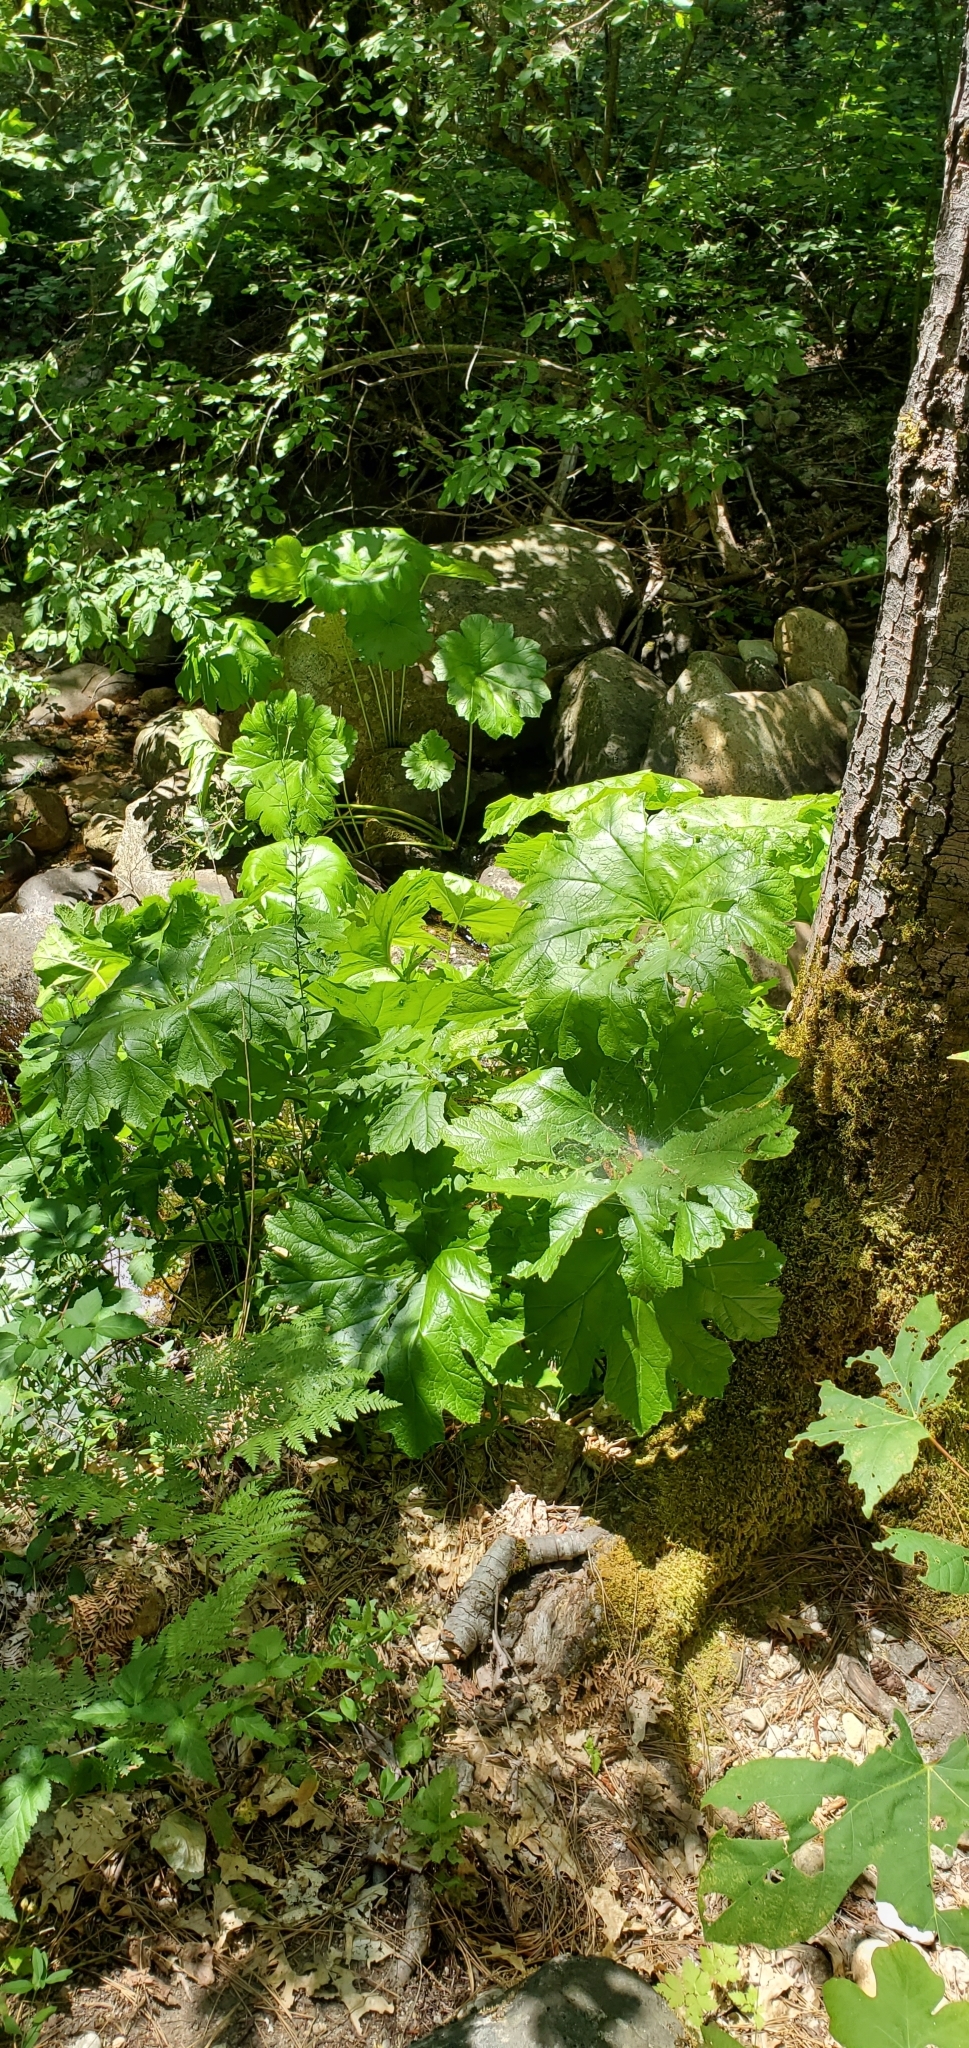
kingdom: Plantae
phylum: Tracheophyta
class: Magnoliopsida
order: Saxifragales
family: Saxifragaceae
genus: Darmera
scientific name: Darmera peltata
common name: Indian-rhubarb
